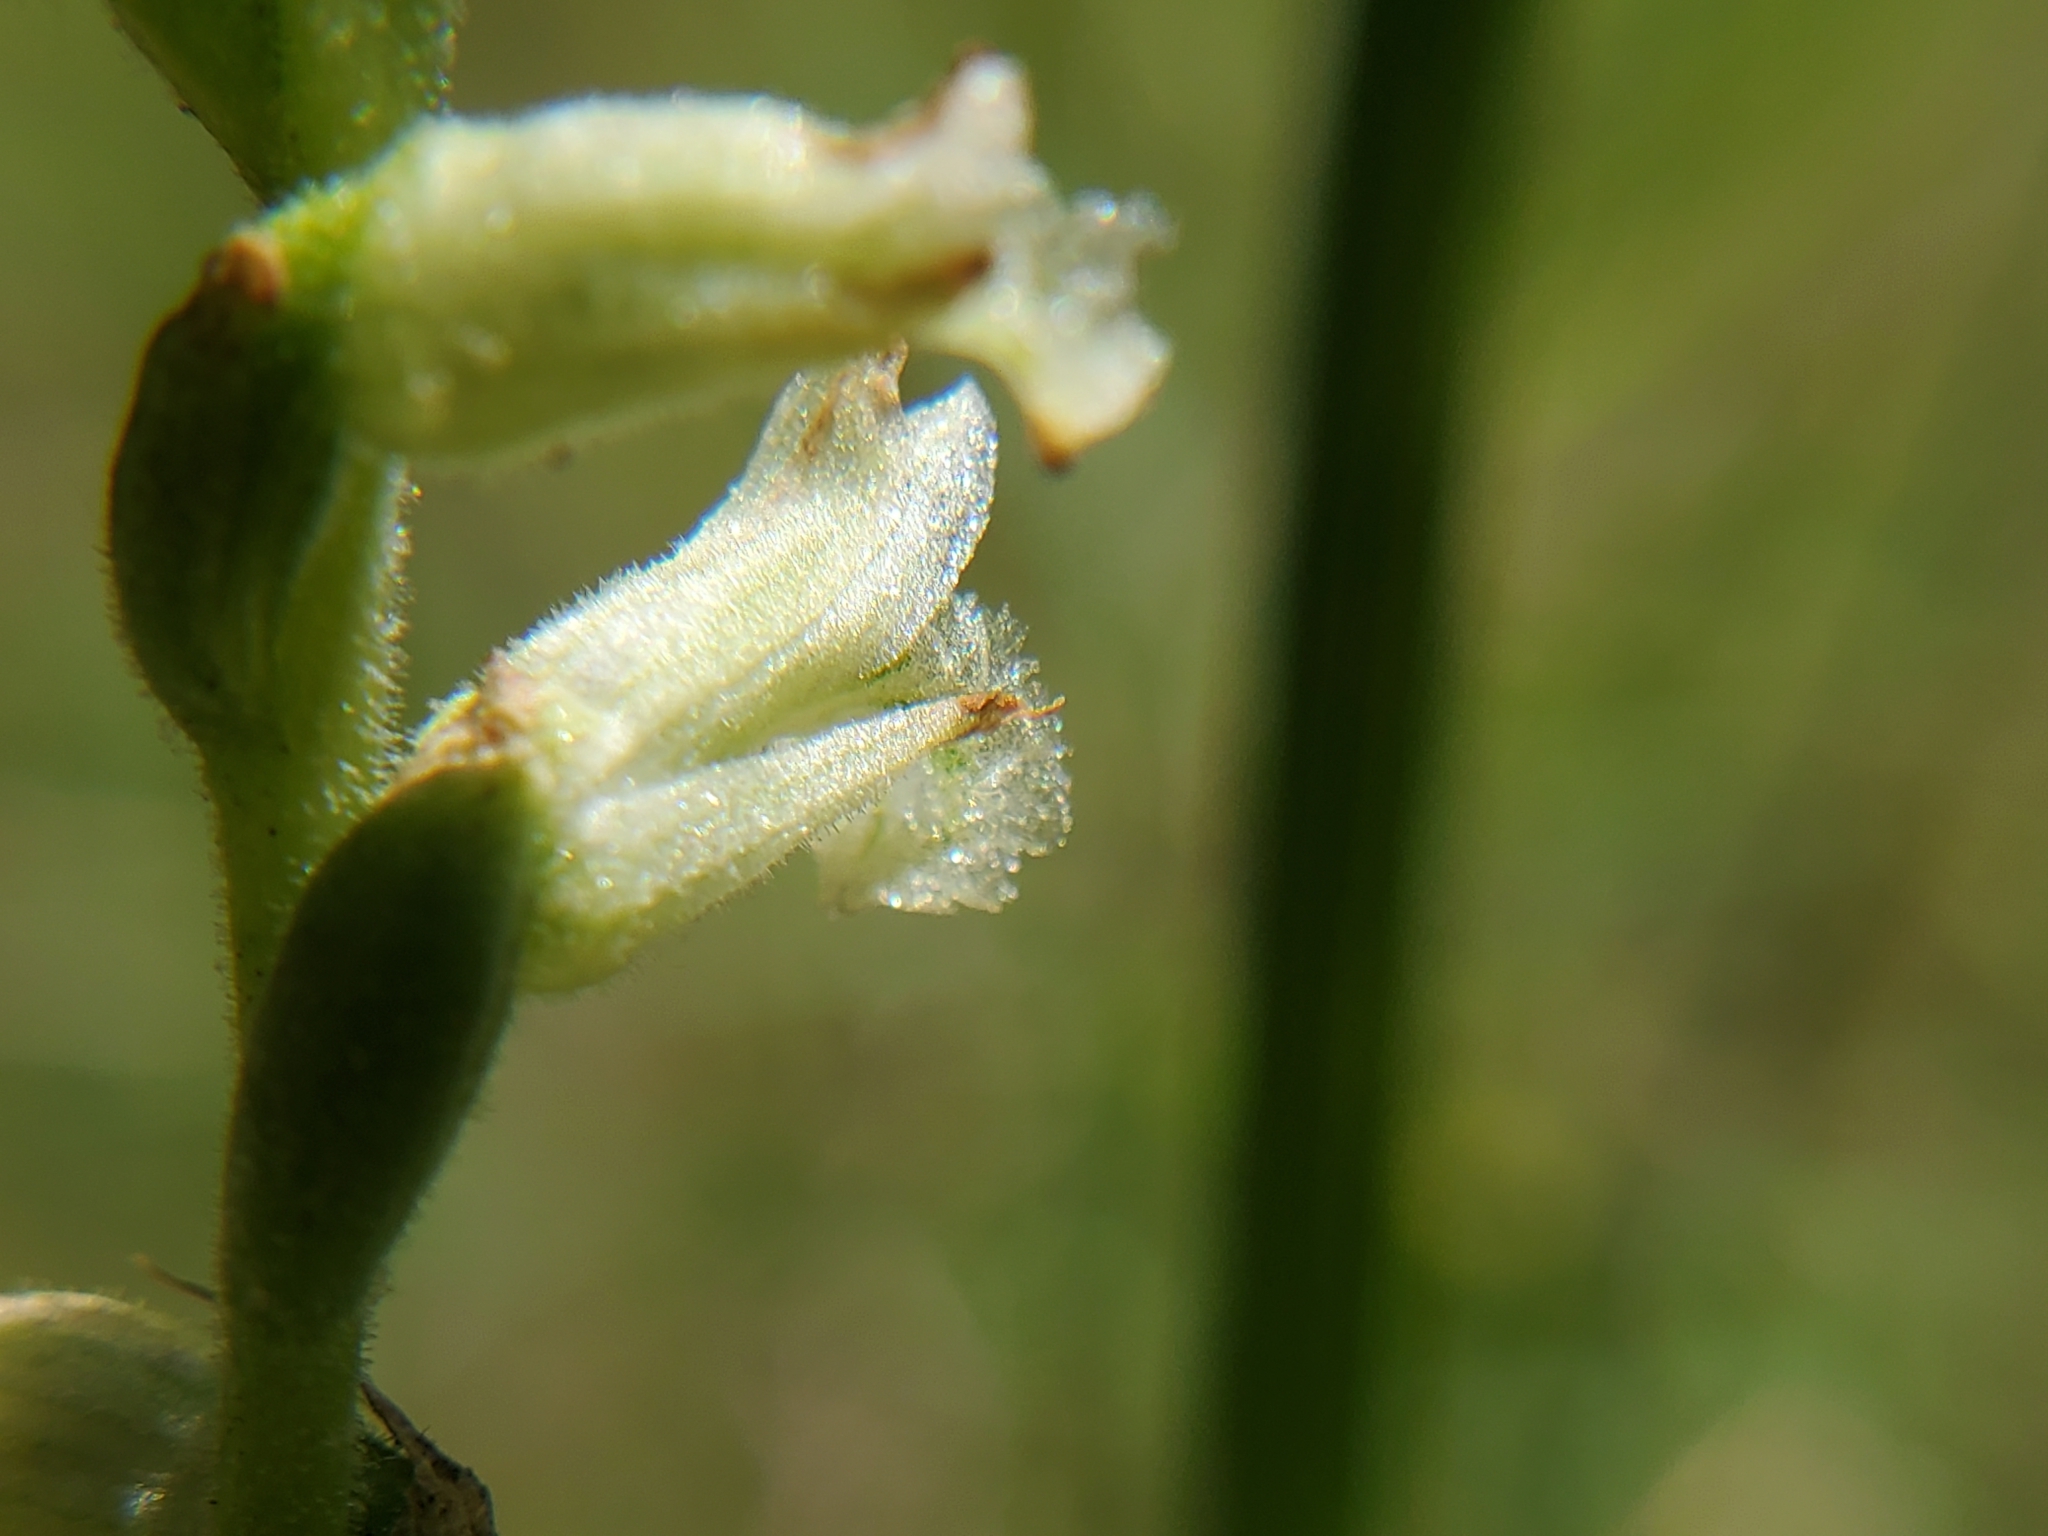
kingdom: Plantae
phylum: Tracheophyta
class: Liliopsida
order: Asparagales
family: Orchidaceae
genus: Spiranthes
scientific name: Spiranthes praecox
